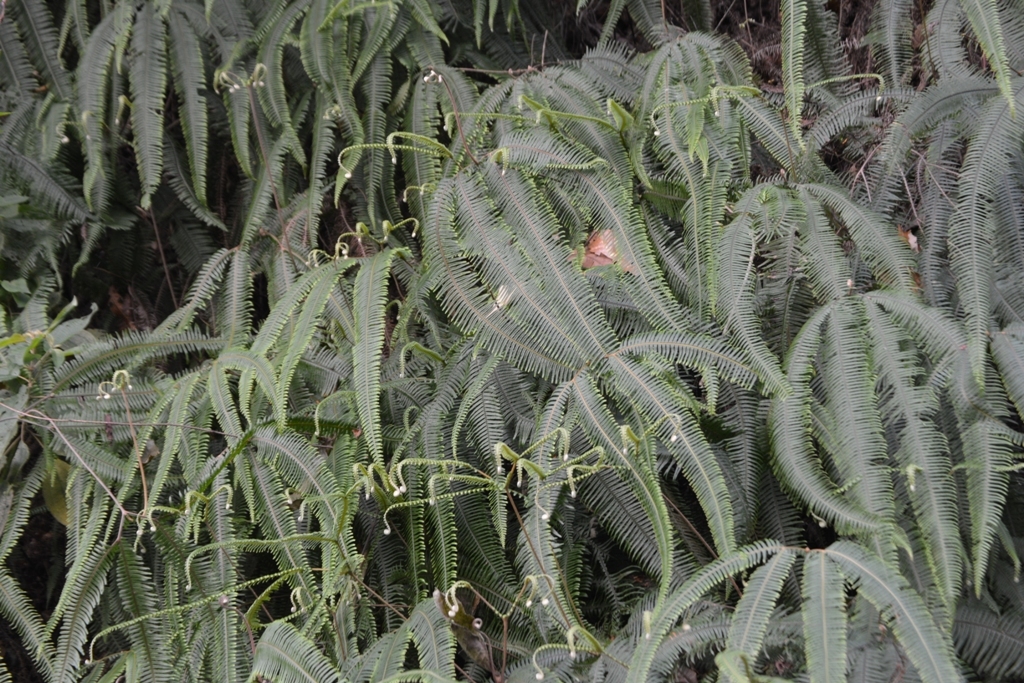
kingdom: Plantae
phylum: Tracheophyta
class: Polypodiopsida
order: Gleicheniales
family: Gleicheniaceae
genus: Sticherus
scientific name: Sticherus bifidus
